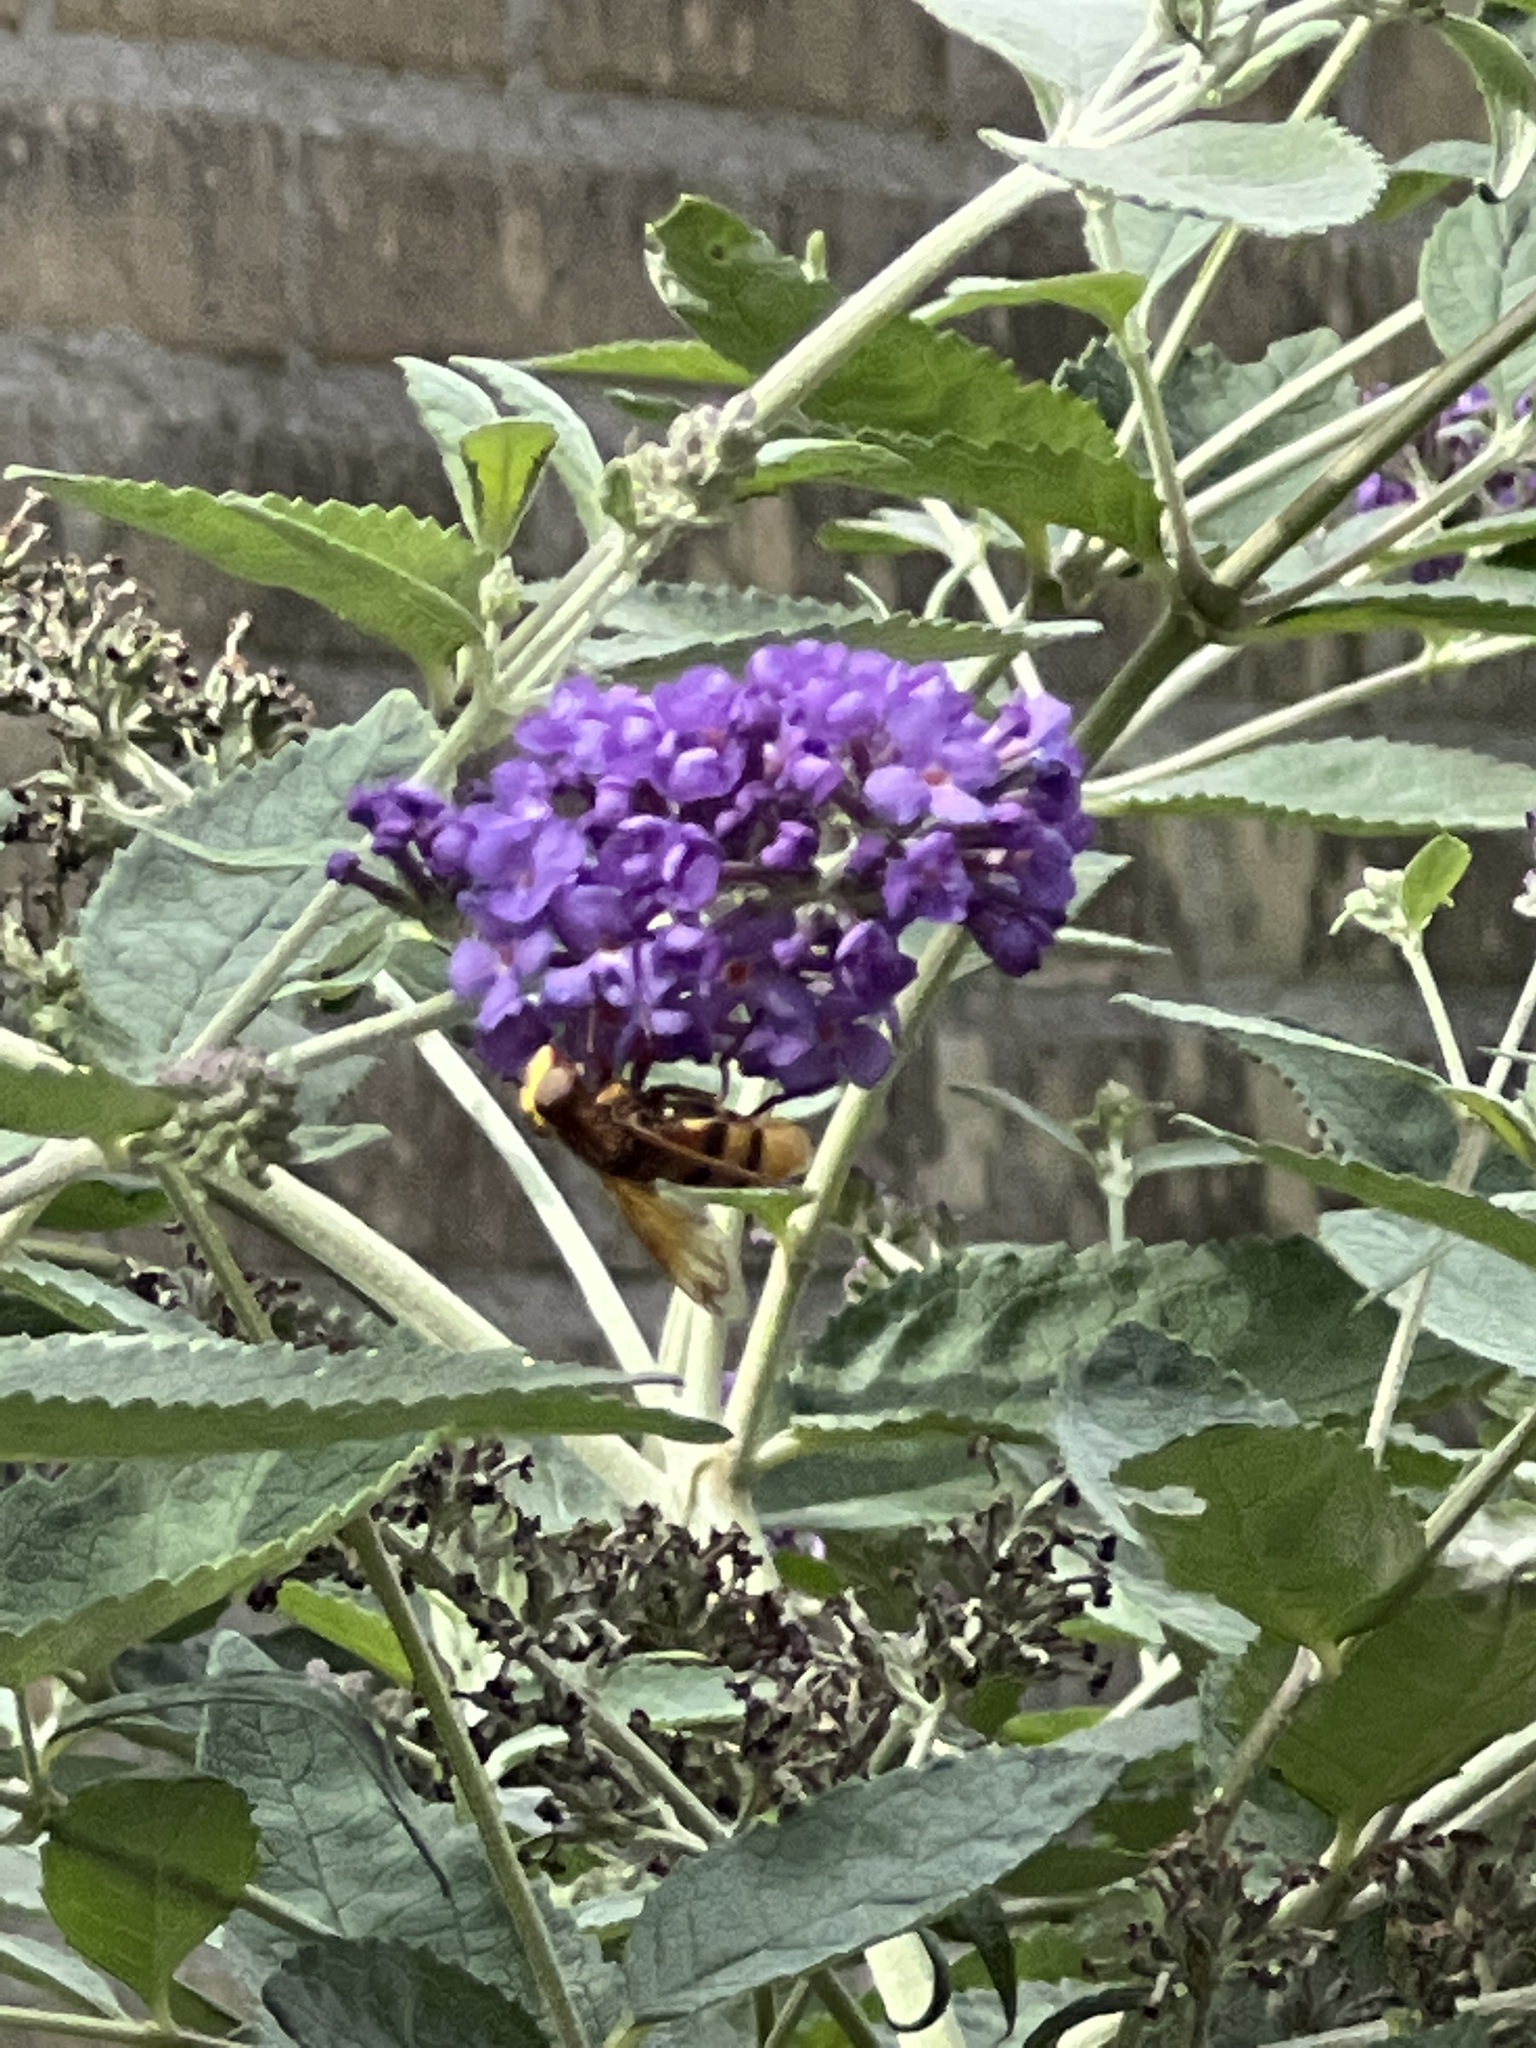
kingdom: Animalia
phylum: Arthropoda
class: Insecta
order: Diptera
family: Syrphidae
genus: Volucella
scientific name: Volucella zonaria
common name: Hornet hoverfly
